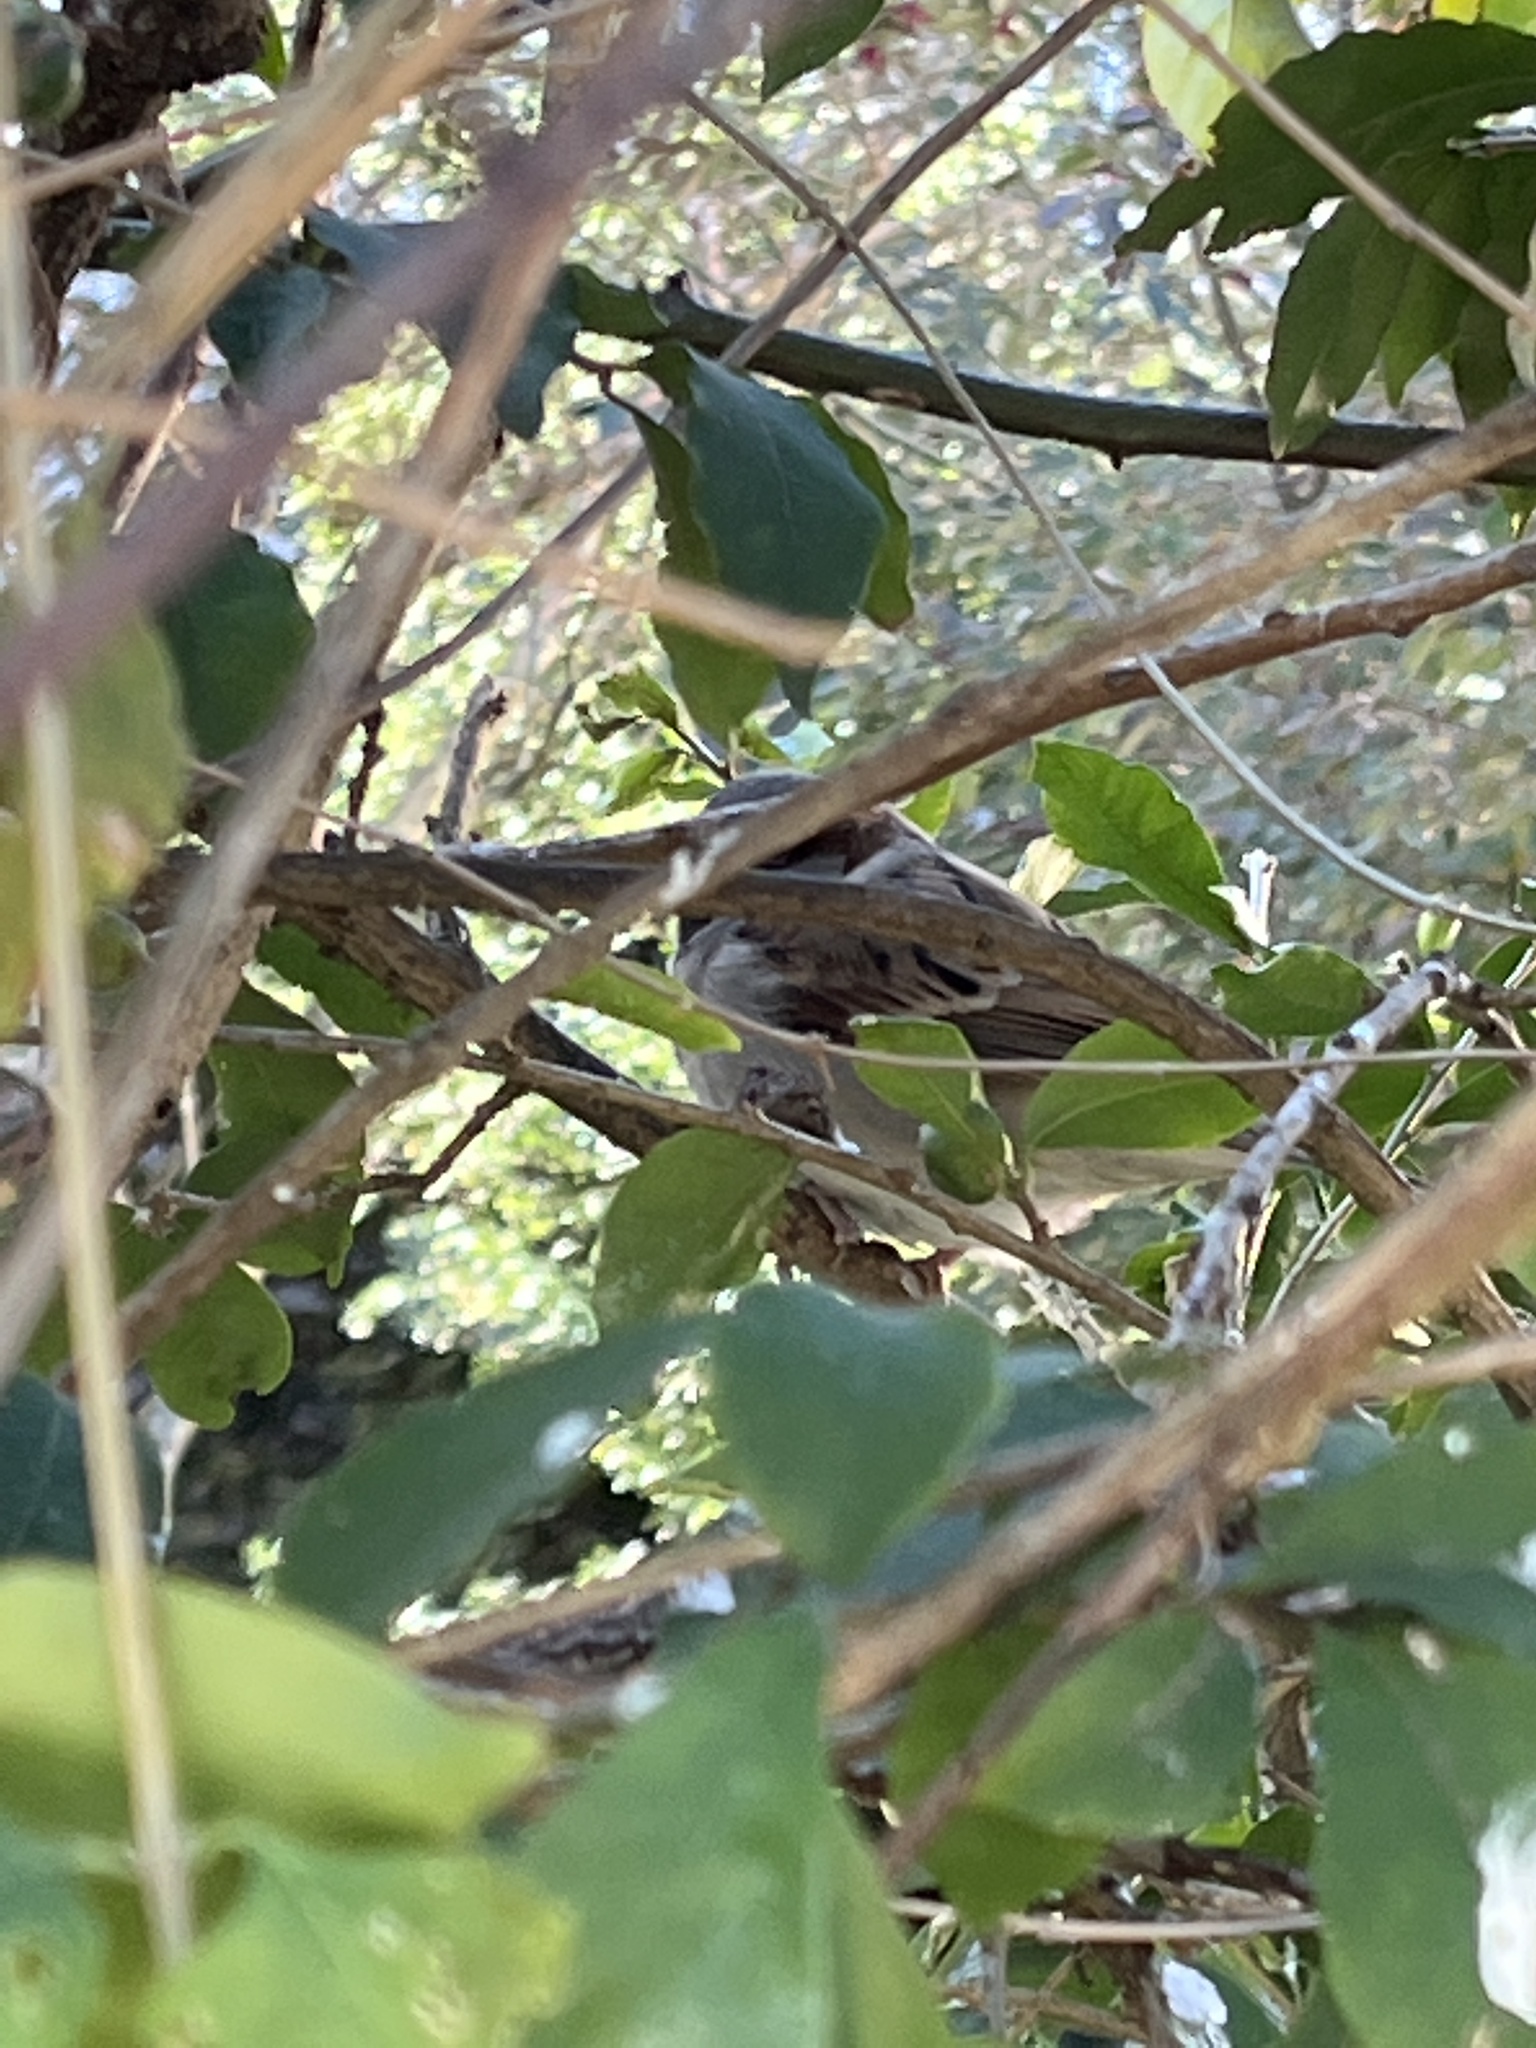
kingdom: Animalia
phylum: Chordata
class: Aves
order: Passeriformes
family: Passeridae
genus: Passer
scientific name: Passer domesticus
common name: House sparrow
